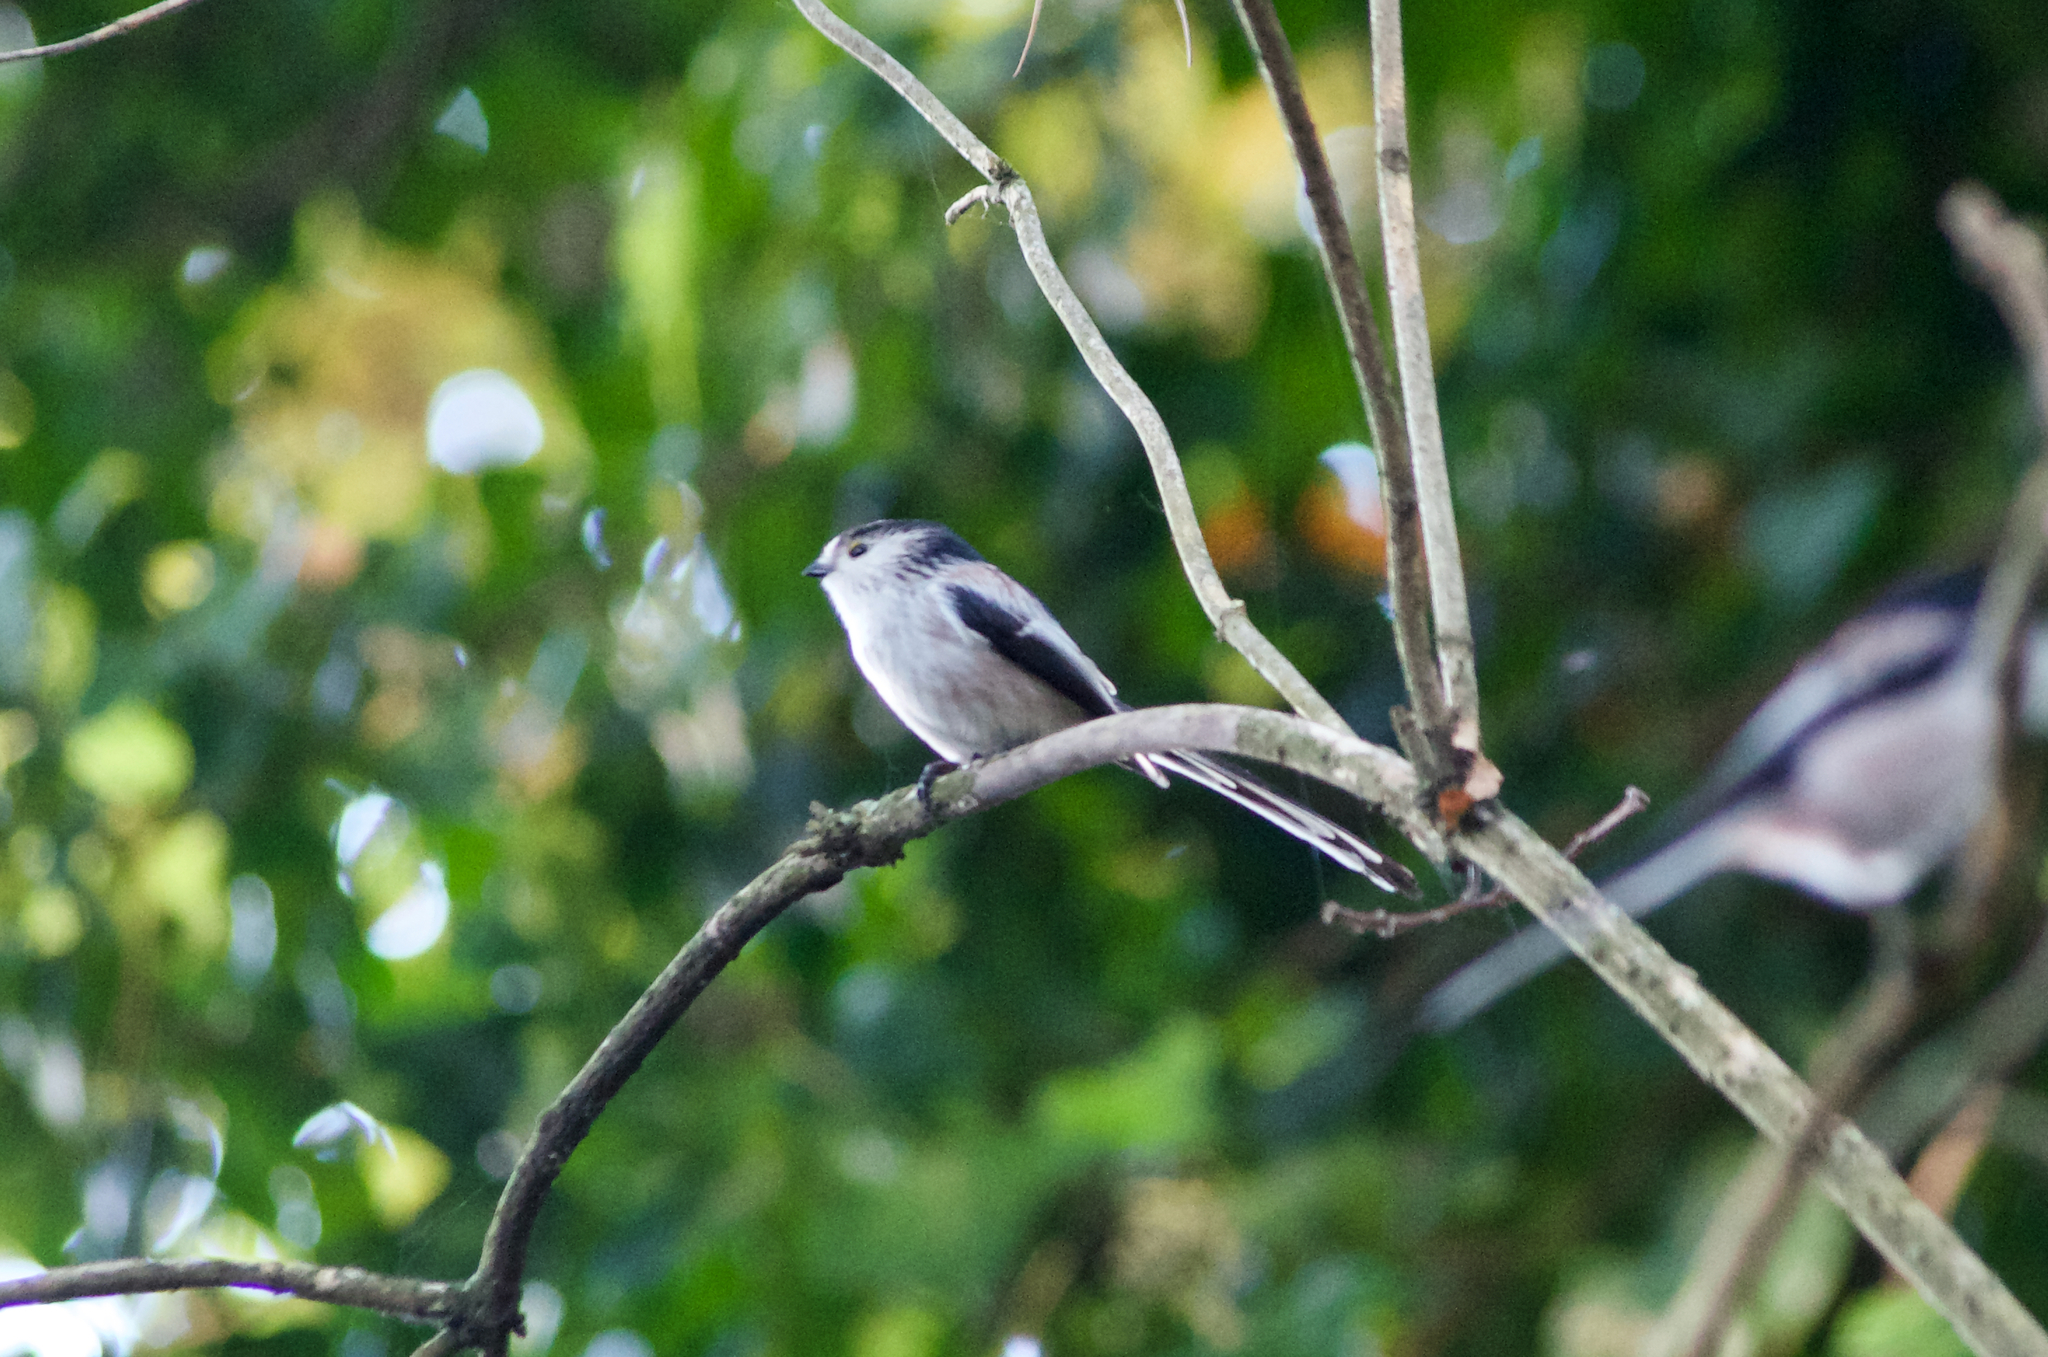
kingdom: Animalia
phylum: Chordata
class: Aves
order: Passeriformes
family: Aegithalidae
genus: Aegithalos
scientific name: Aegithalos caudatus
